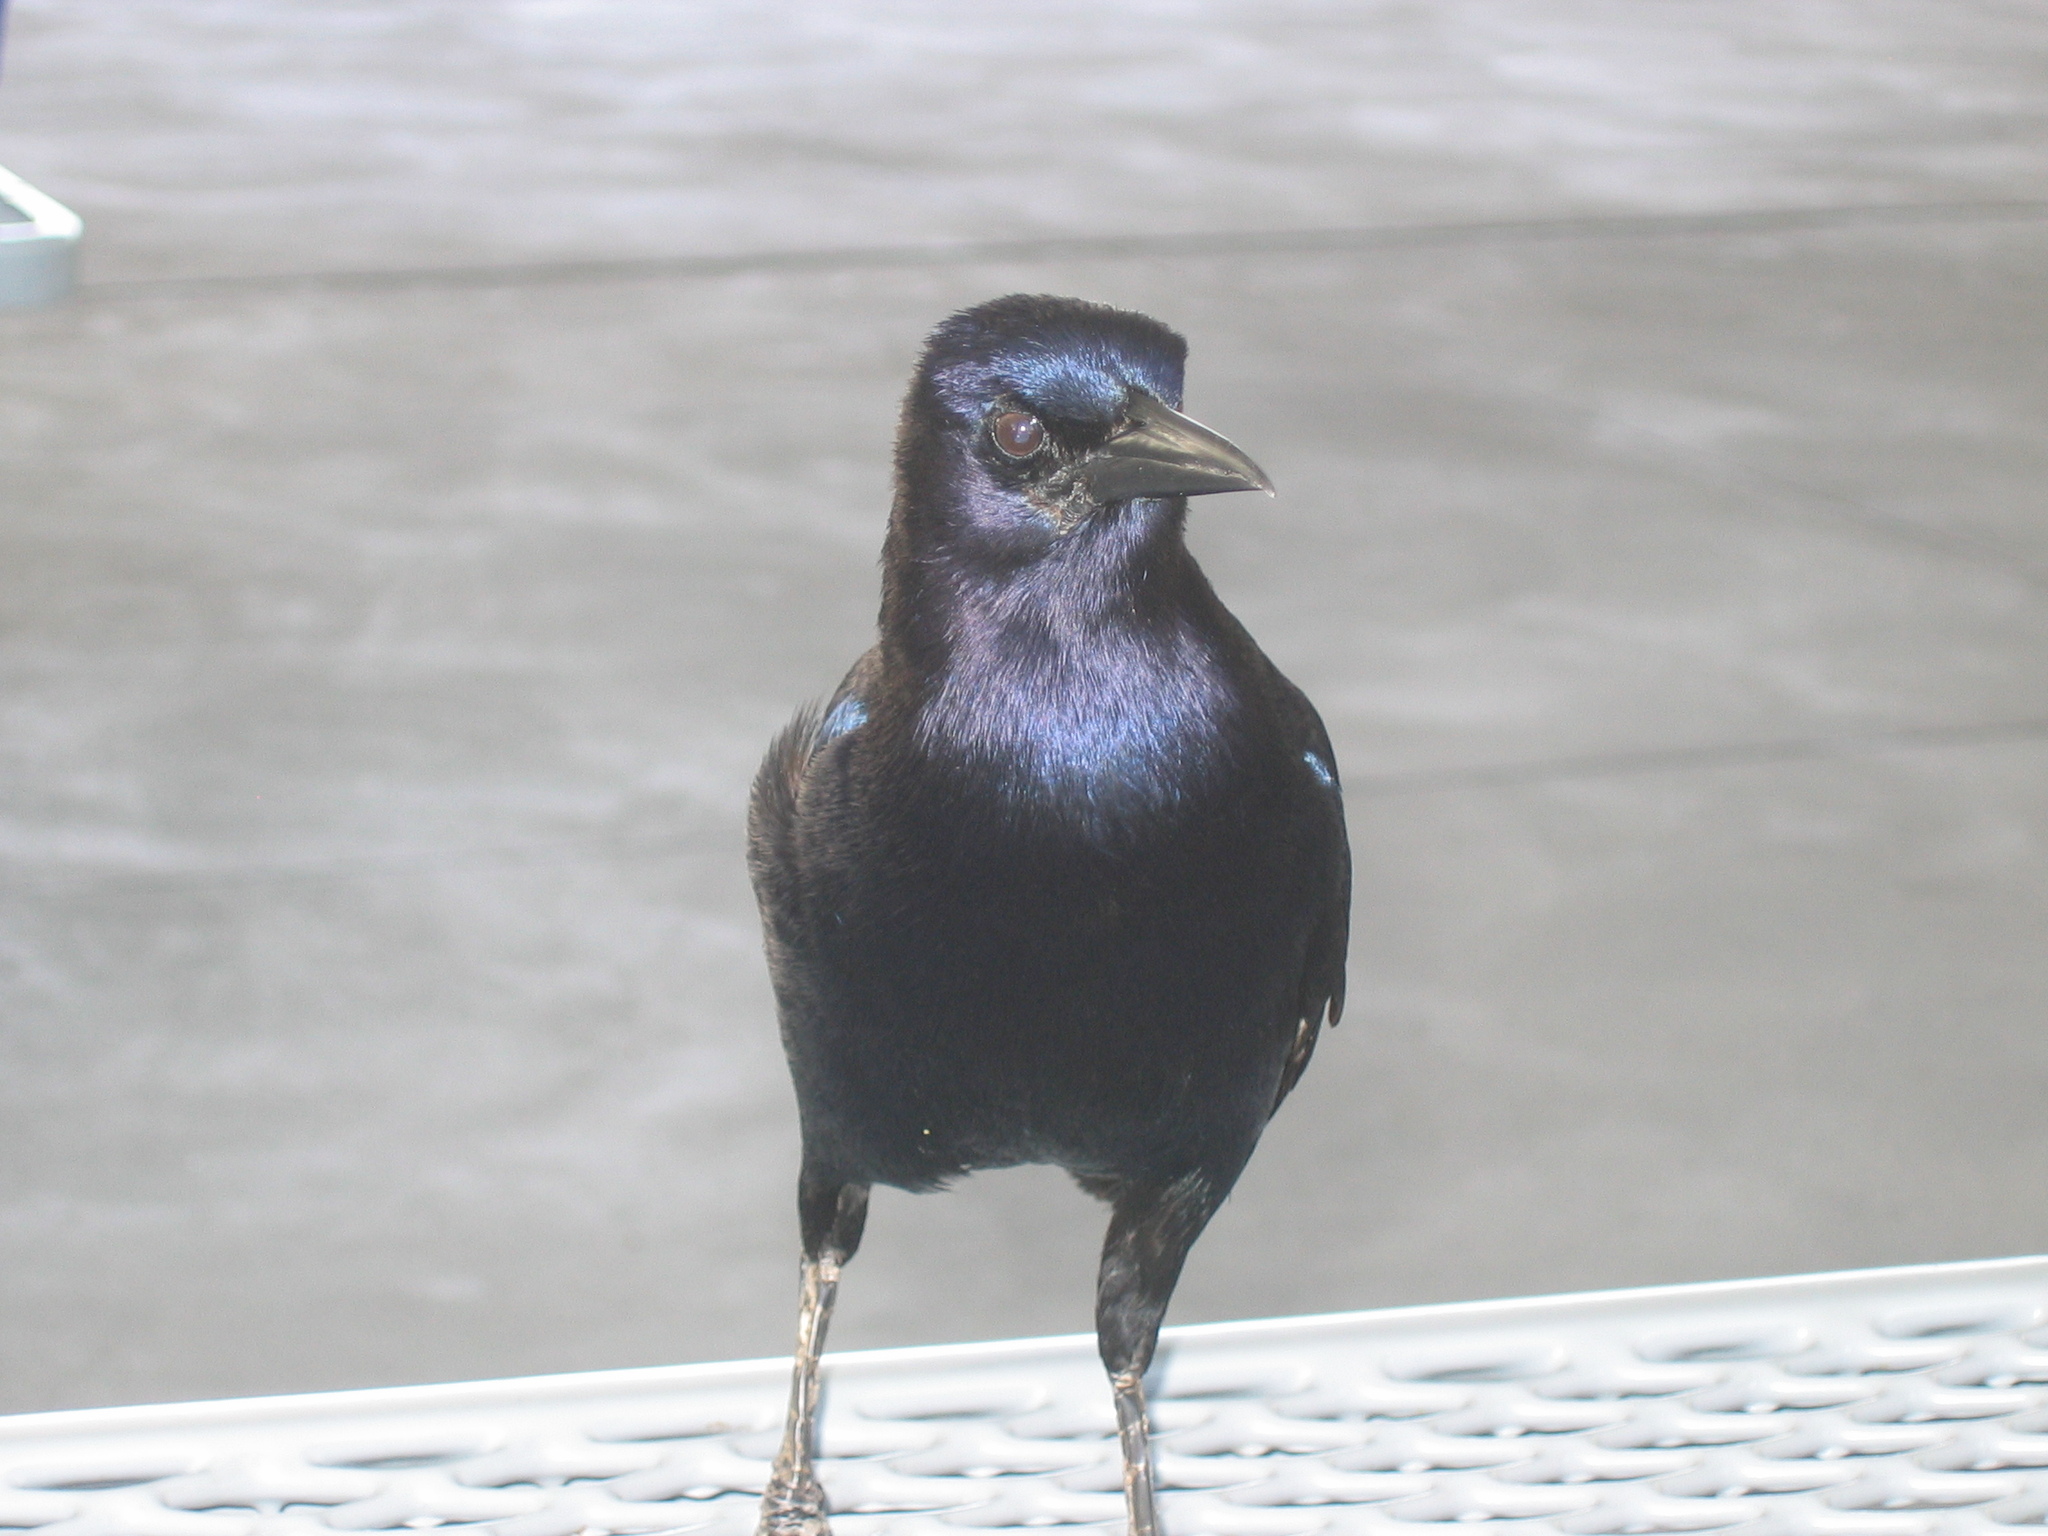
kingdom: Animalia
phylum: Chordata
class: Aves
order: Passeriformes
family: Icteridae
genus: Quiscalus
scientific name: Quiscalus major
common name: Boat-tailed grackle
